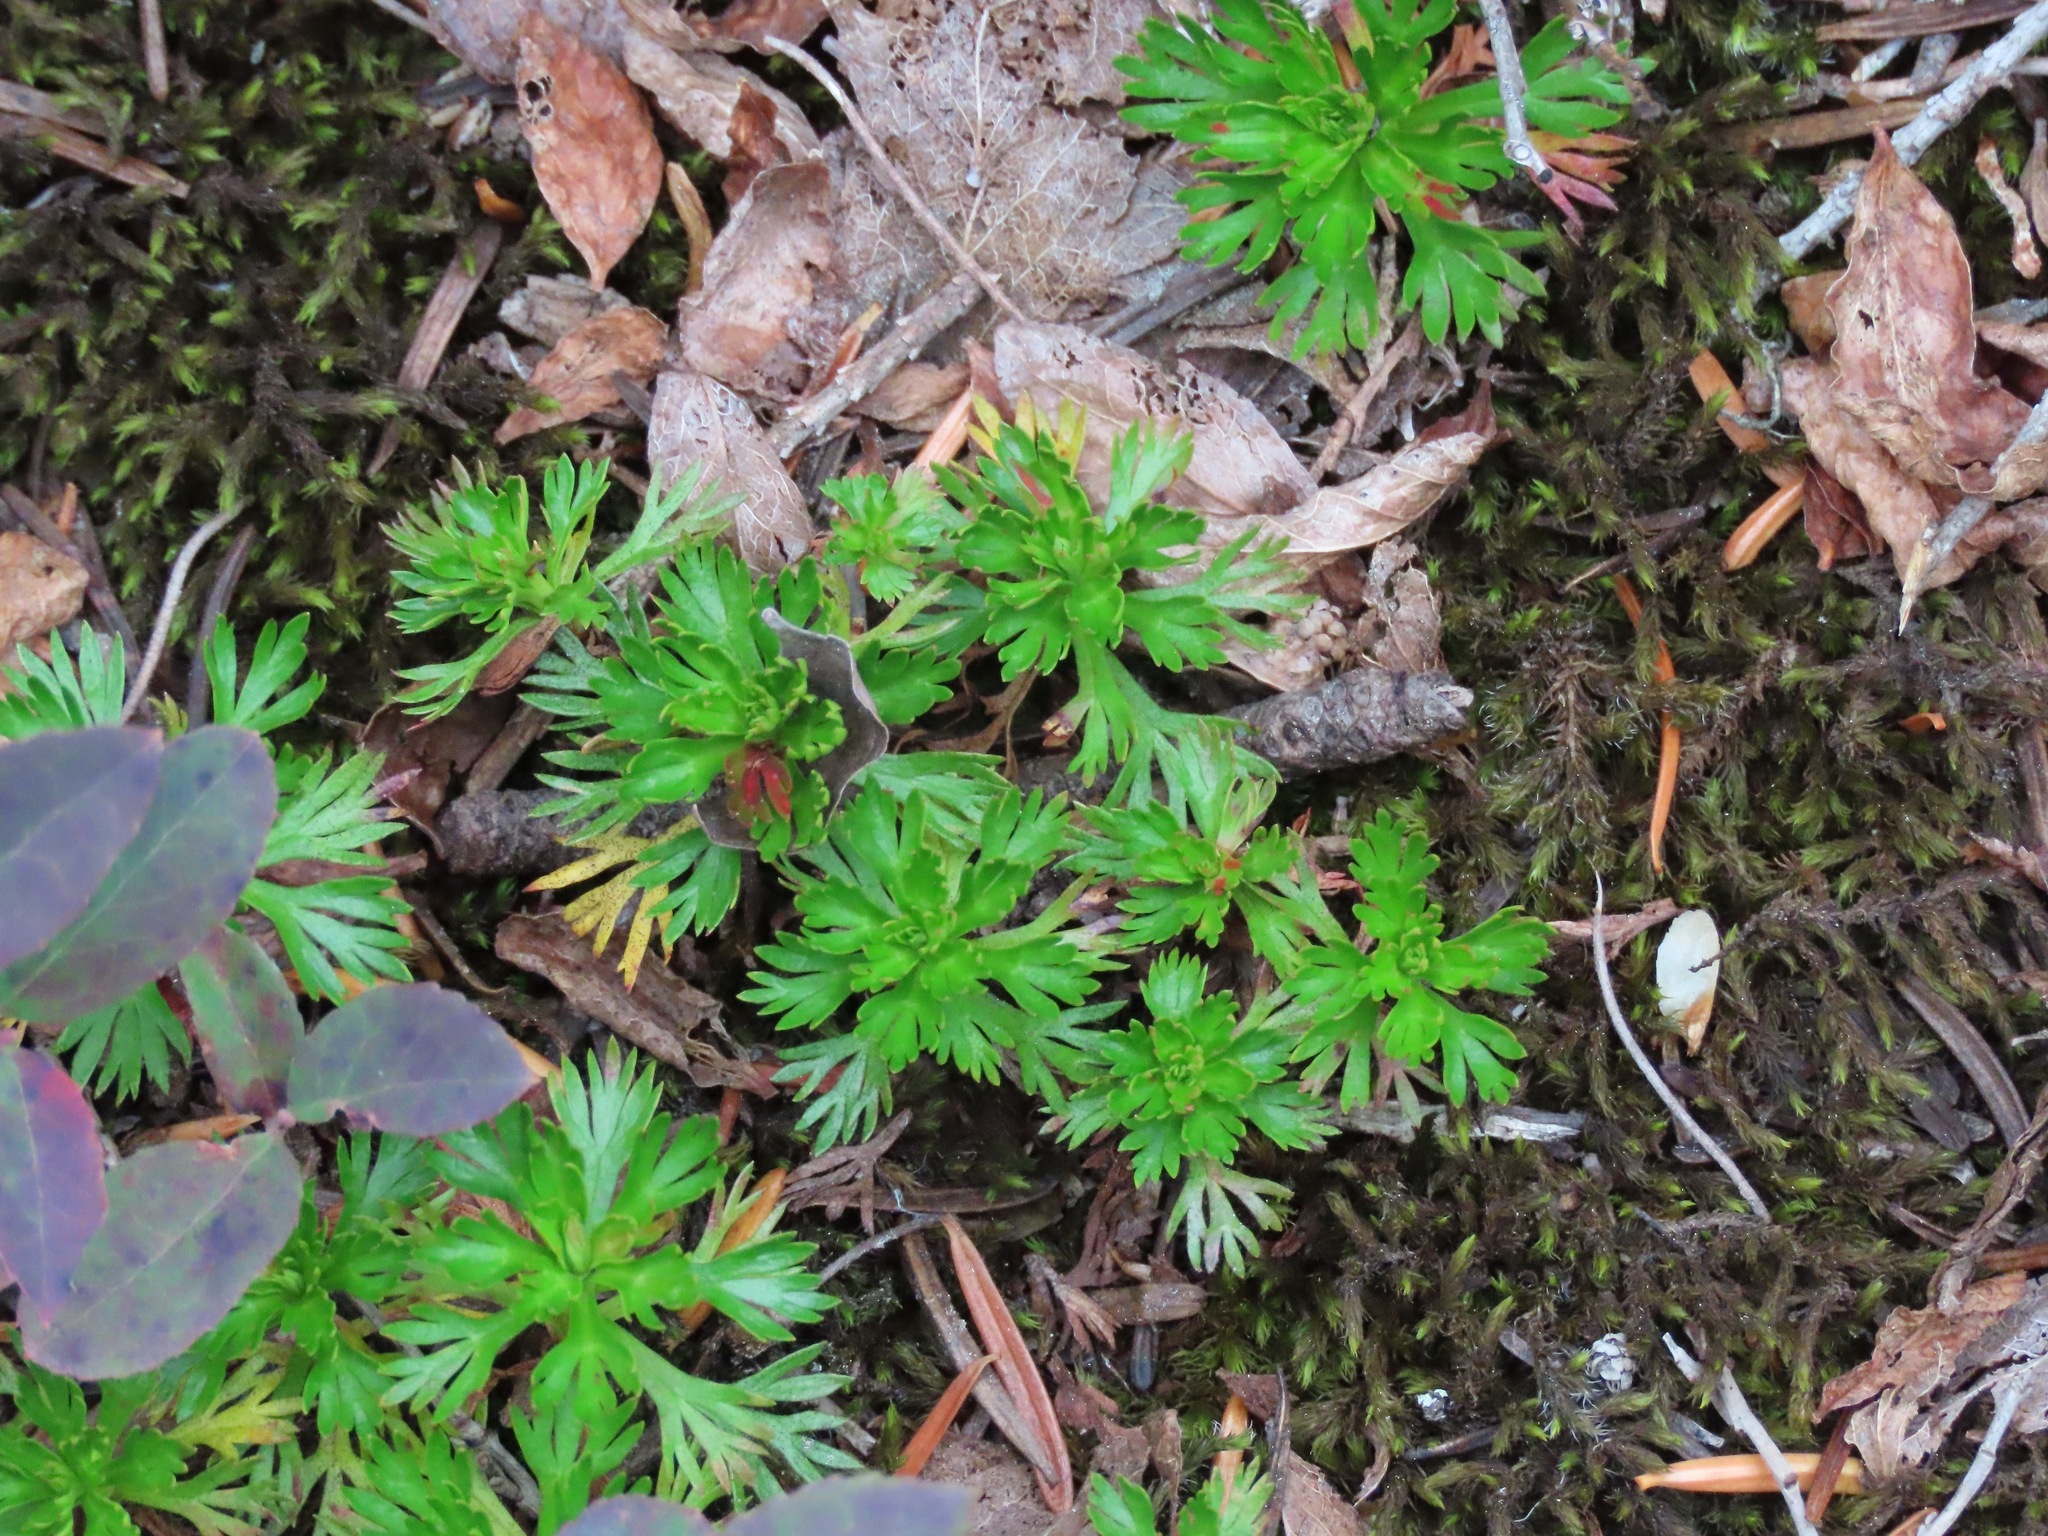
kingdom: Plantae
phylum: Tracheophyta
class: Magnoliopsida
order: Rosales
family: Rosaceae
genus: Luetkea
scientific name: Luetkea pectinata
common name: Partridgefoot
